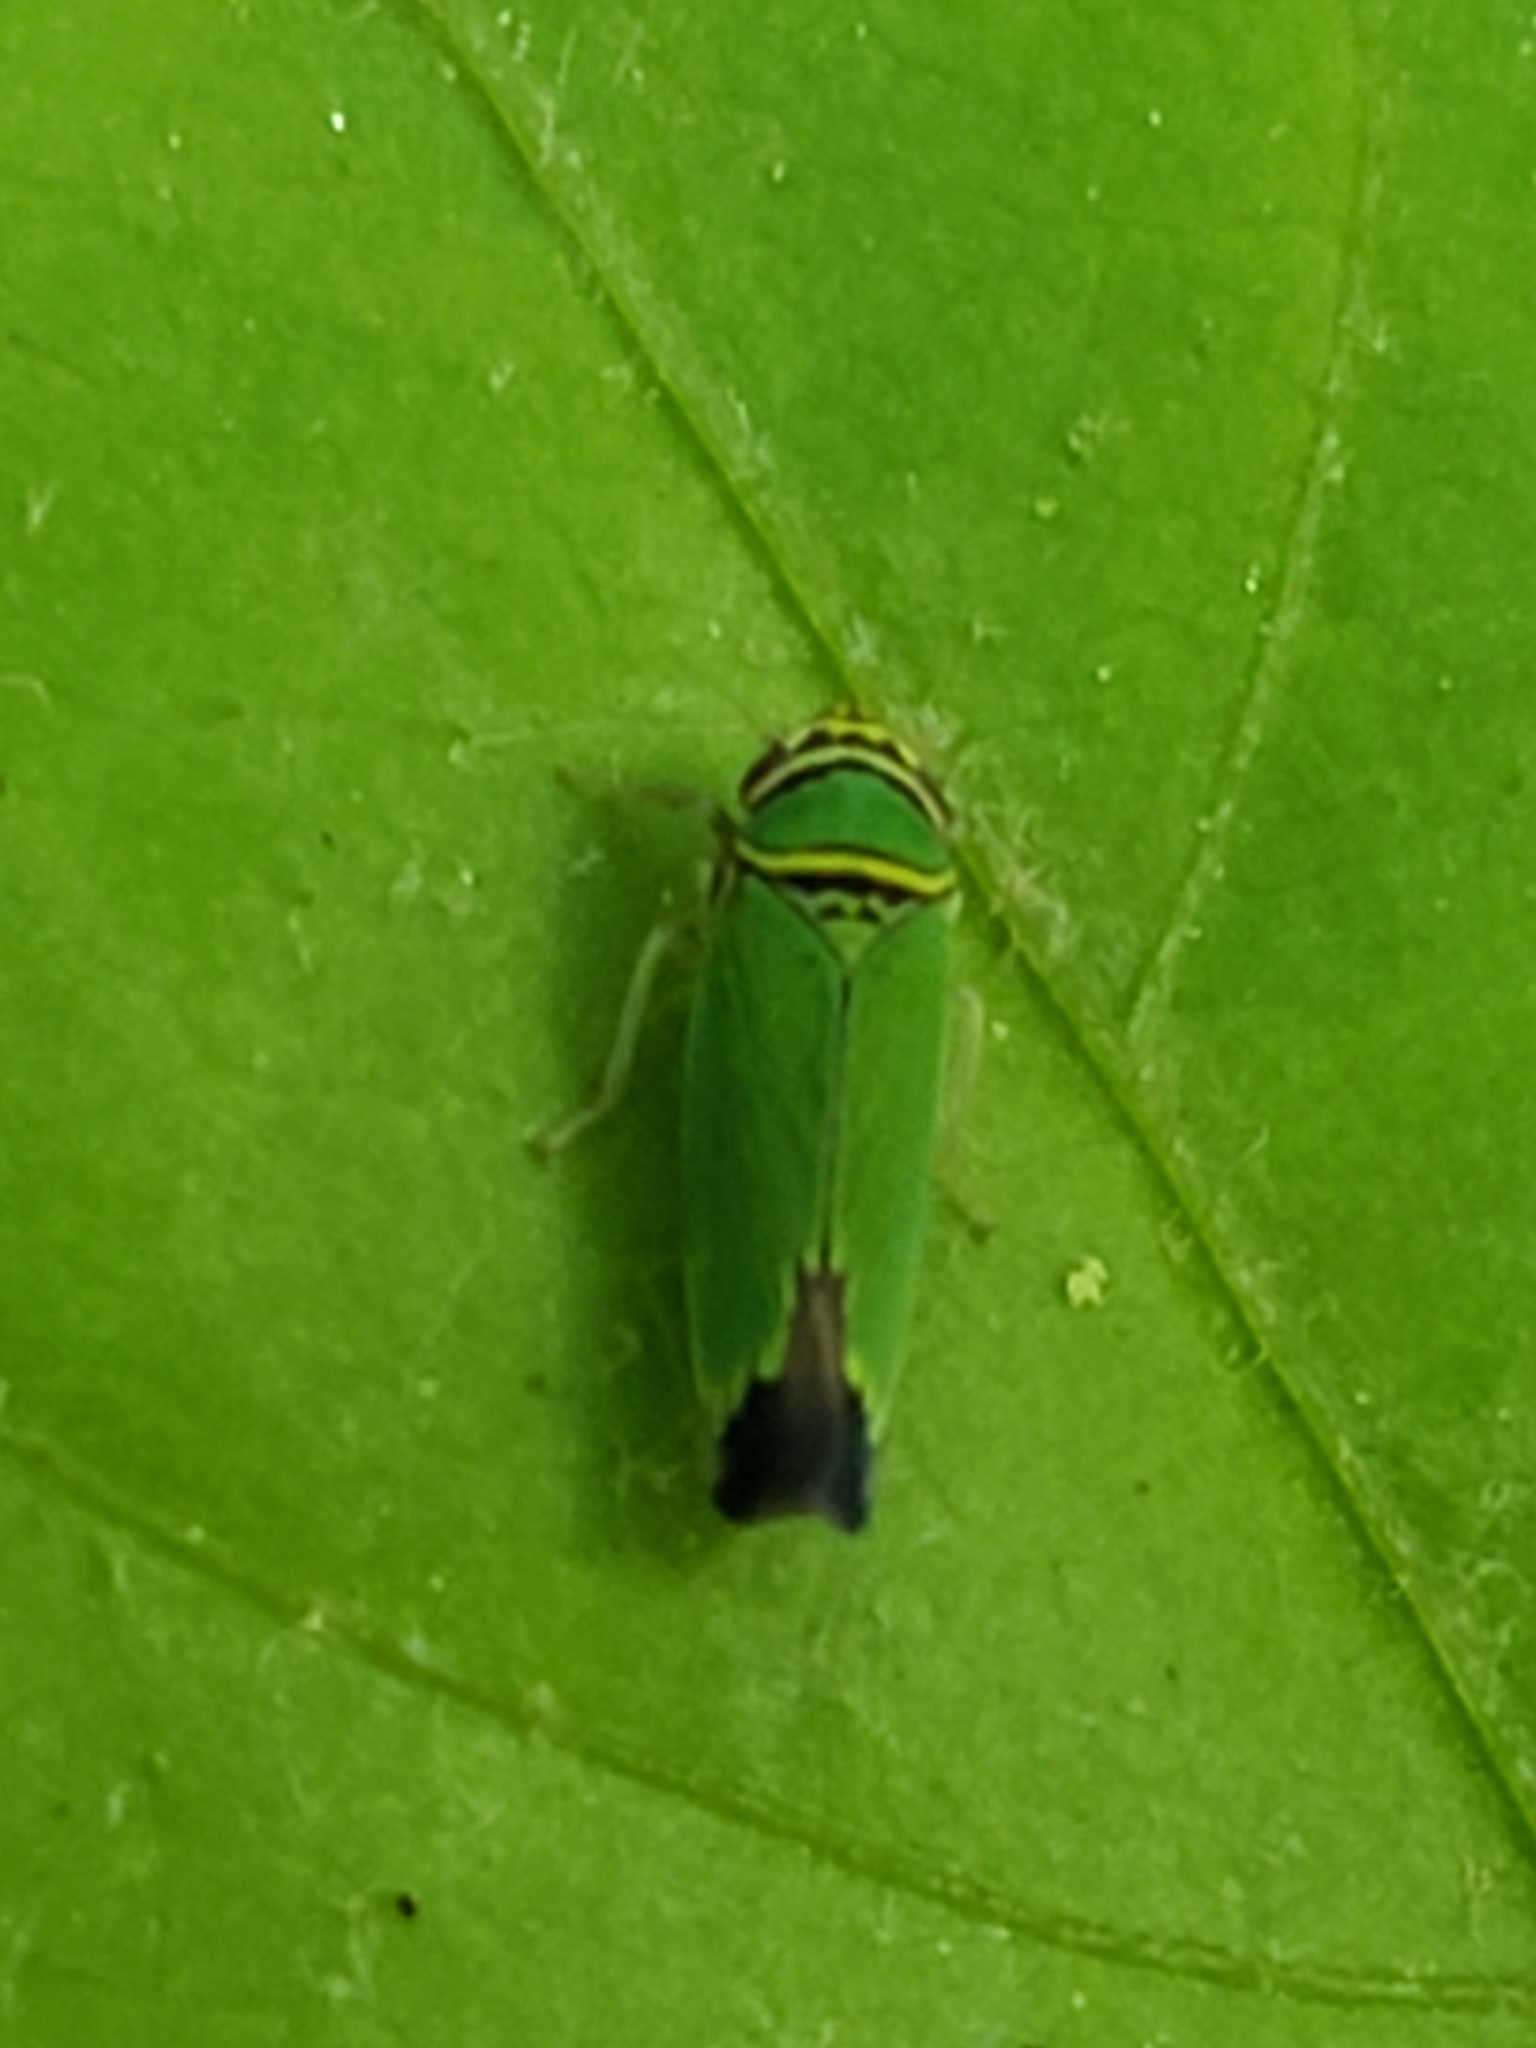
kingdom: Animalia
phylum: Arthropoda
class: Insecta
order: Hemiptera
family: Cicadellidae
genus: Tylozygus
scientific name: Tylozygus geometricus
